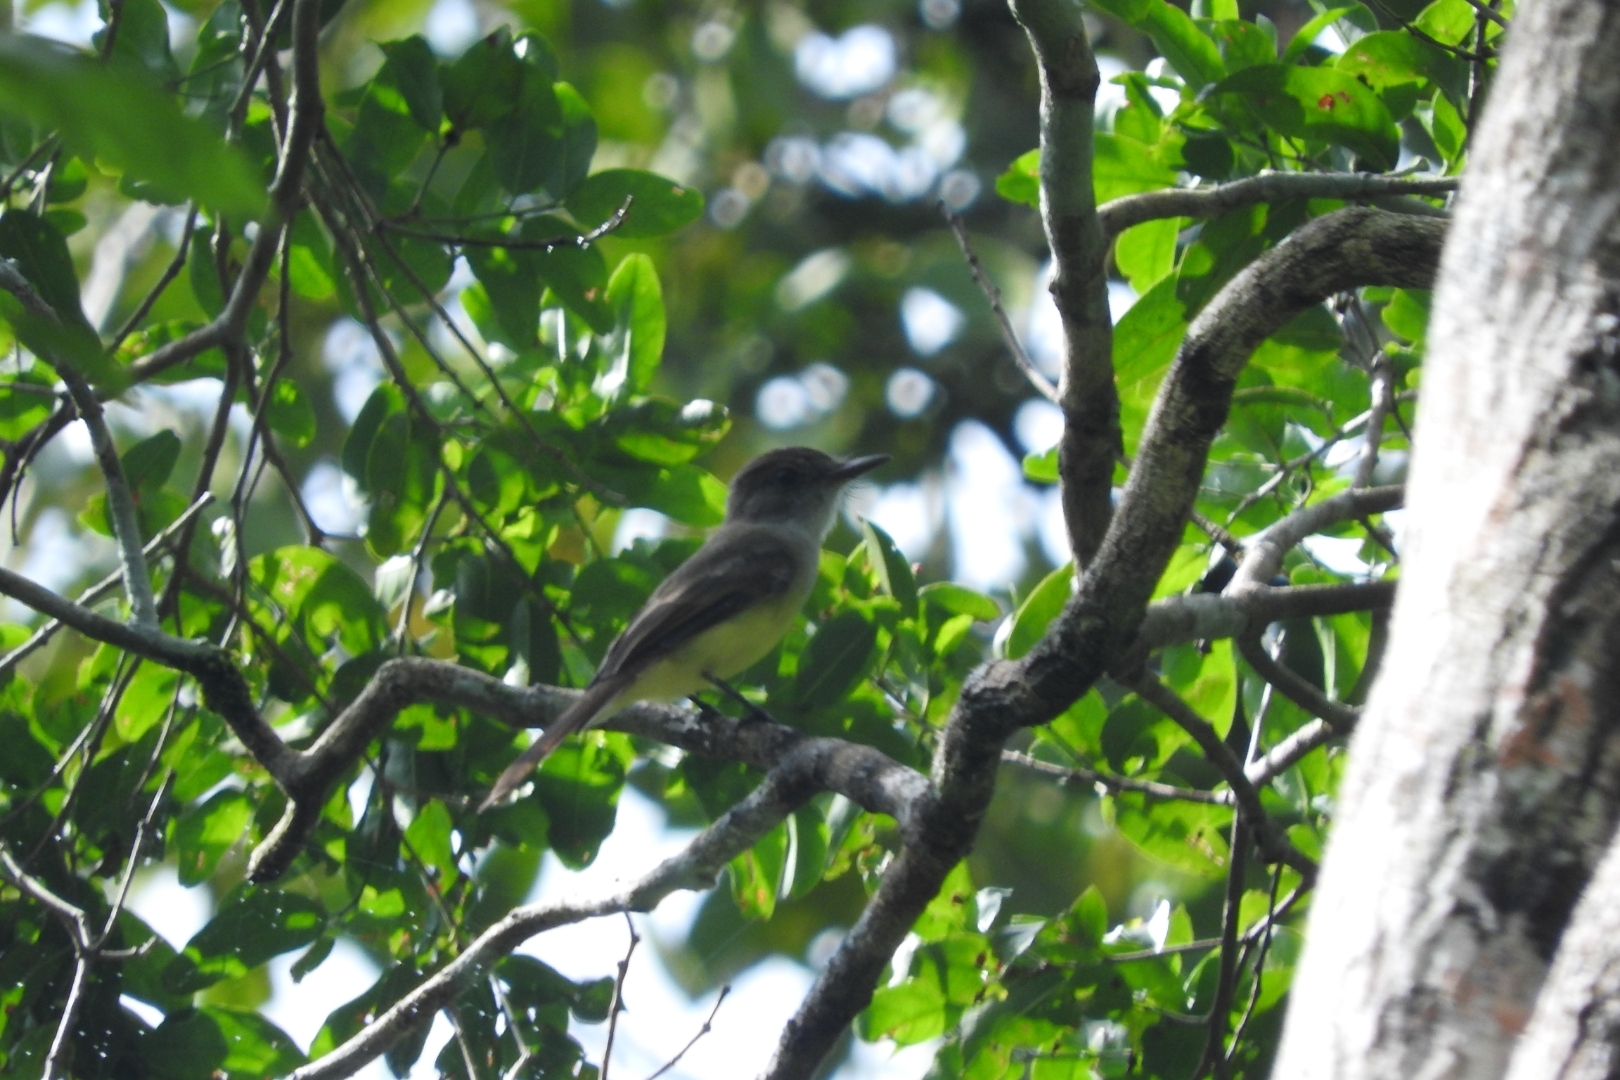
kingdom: Animalia
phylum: Chordata
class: Aves
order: Passeriformes
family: Tyrannidae
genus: Myiarchus
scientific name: Myiarchus tuberculifer
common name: Dusky-capped flycatcher
